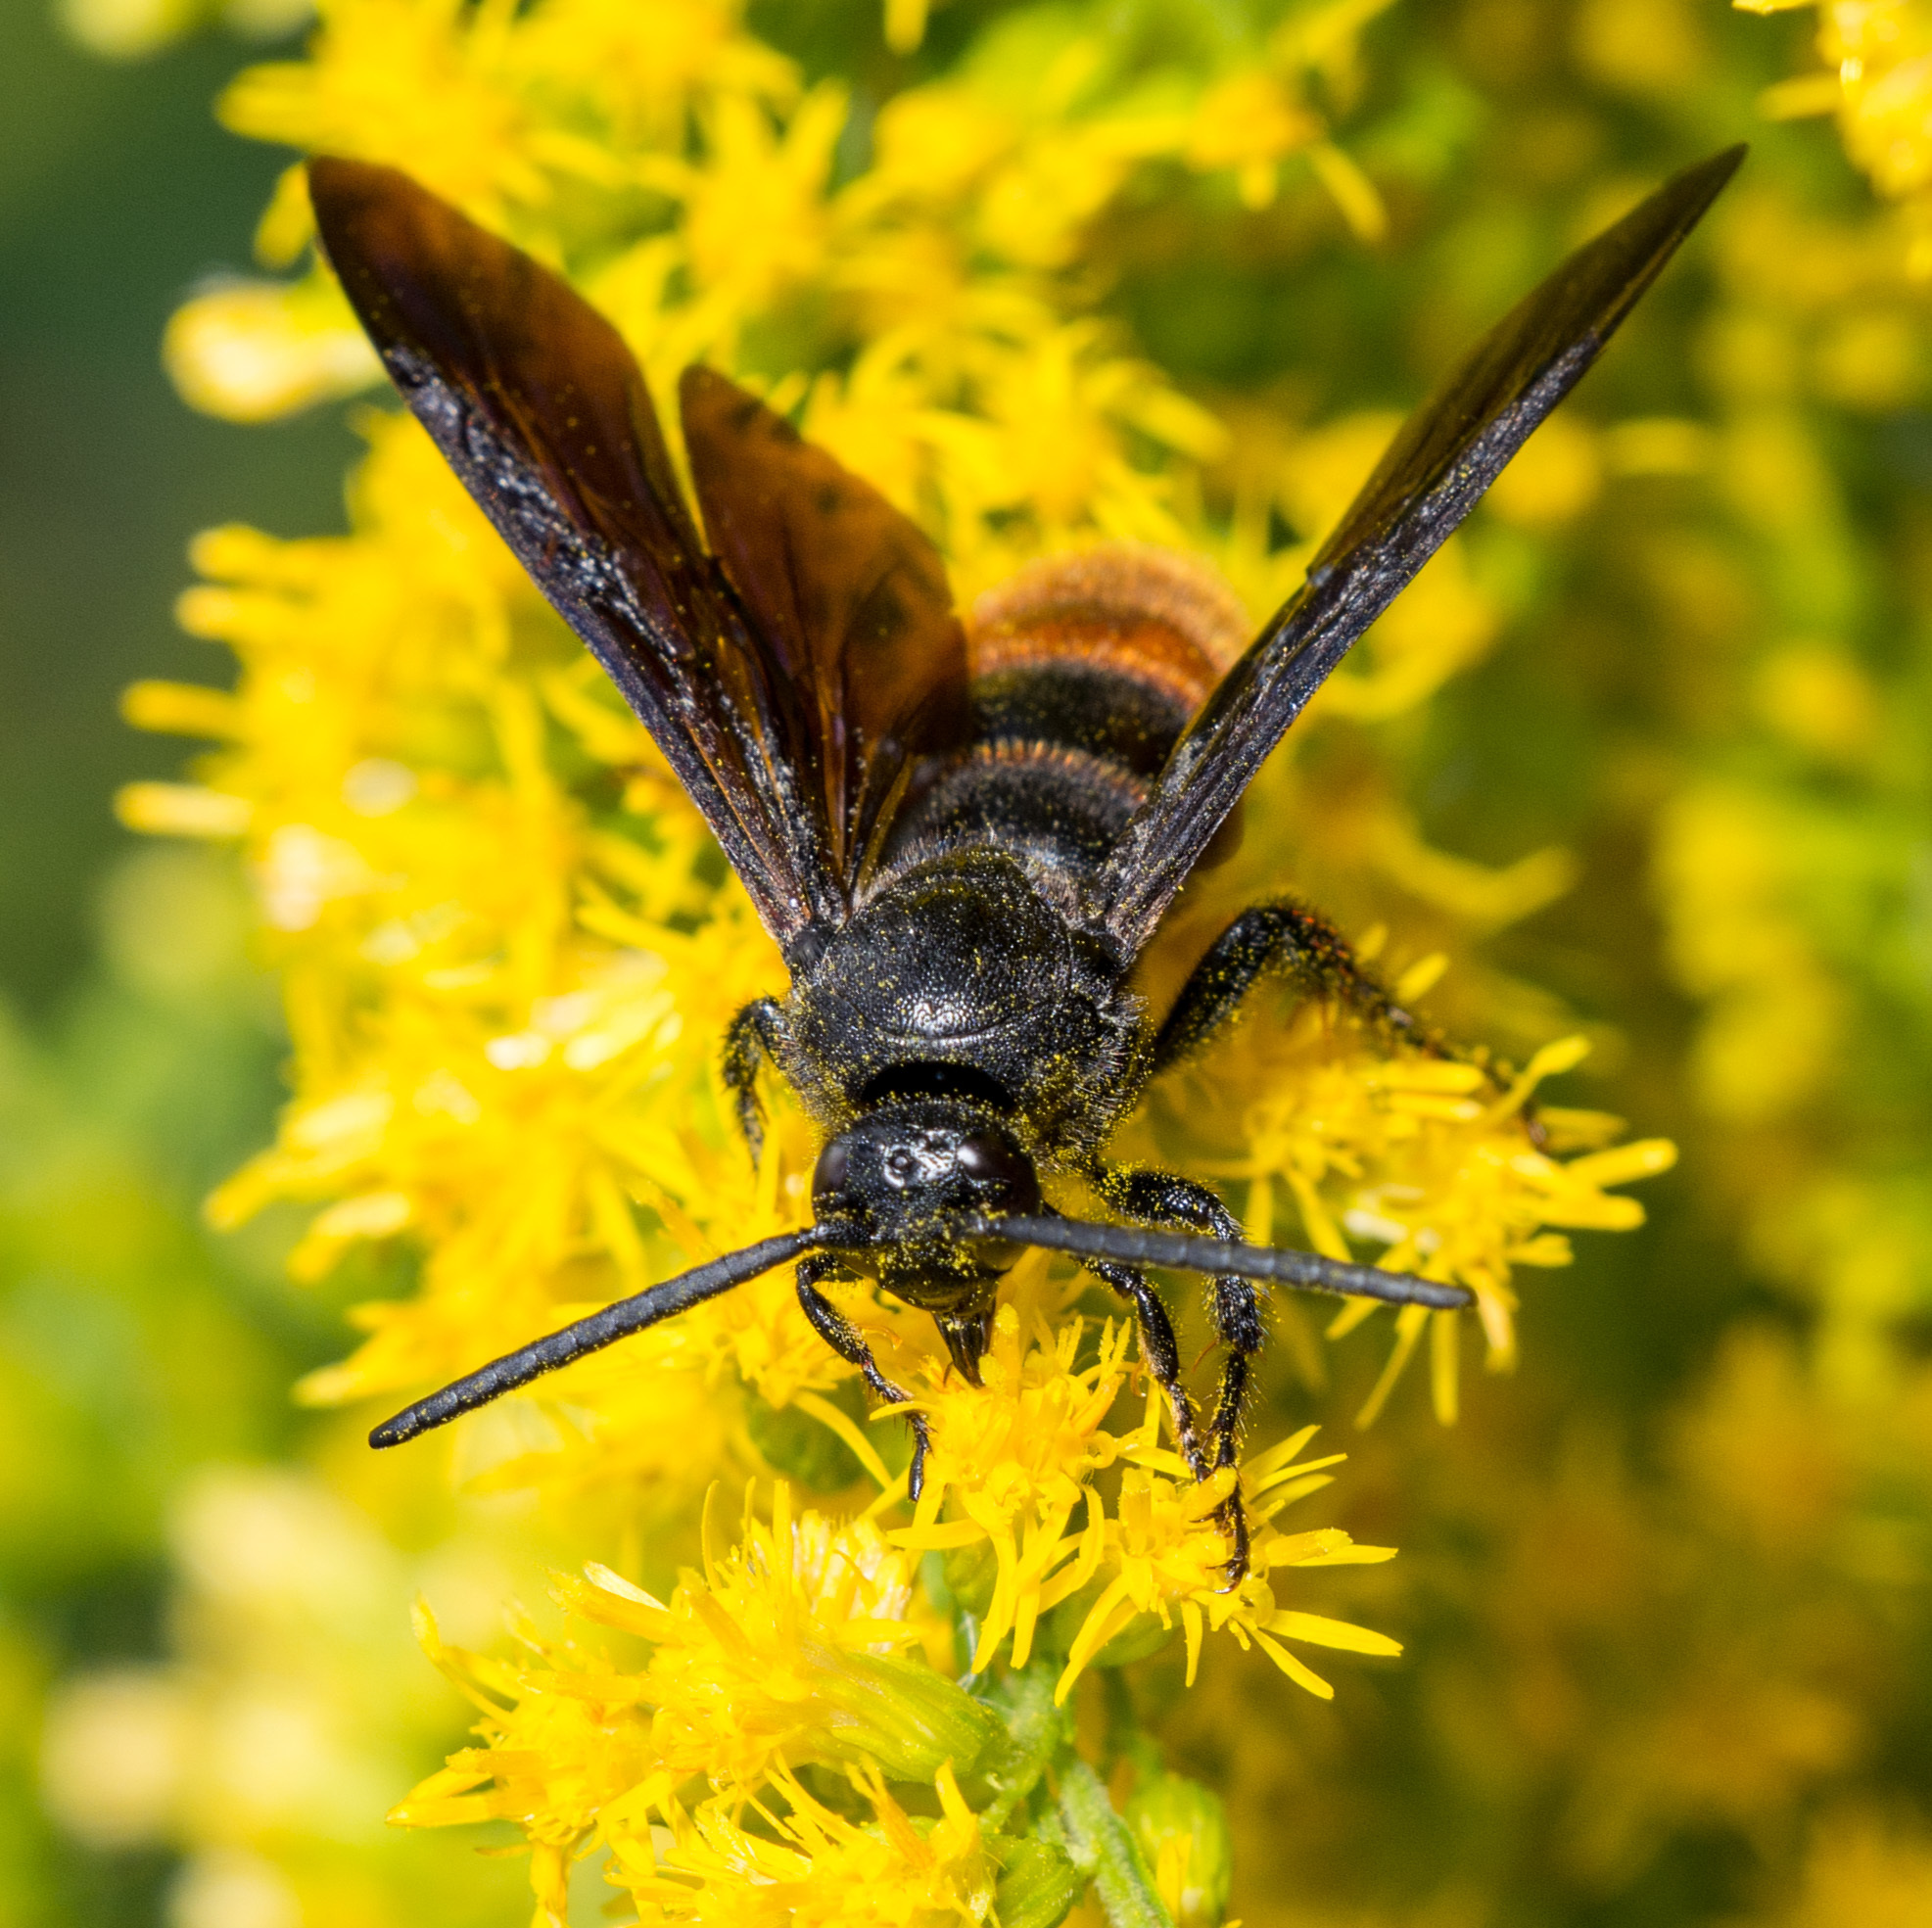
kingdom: Animalia
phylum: Arthropoda
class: Insecta
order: Hymenoptera
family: Scoliidae
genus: Scolia
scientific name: Scolia dubia
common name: Blue-winged scoliid wasp
